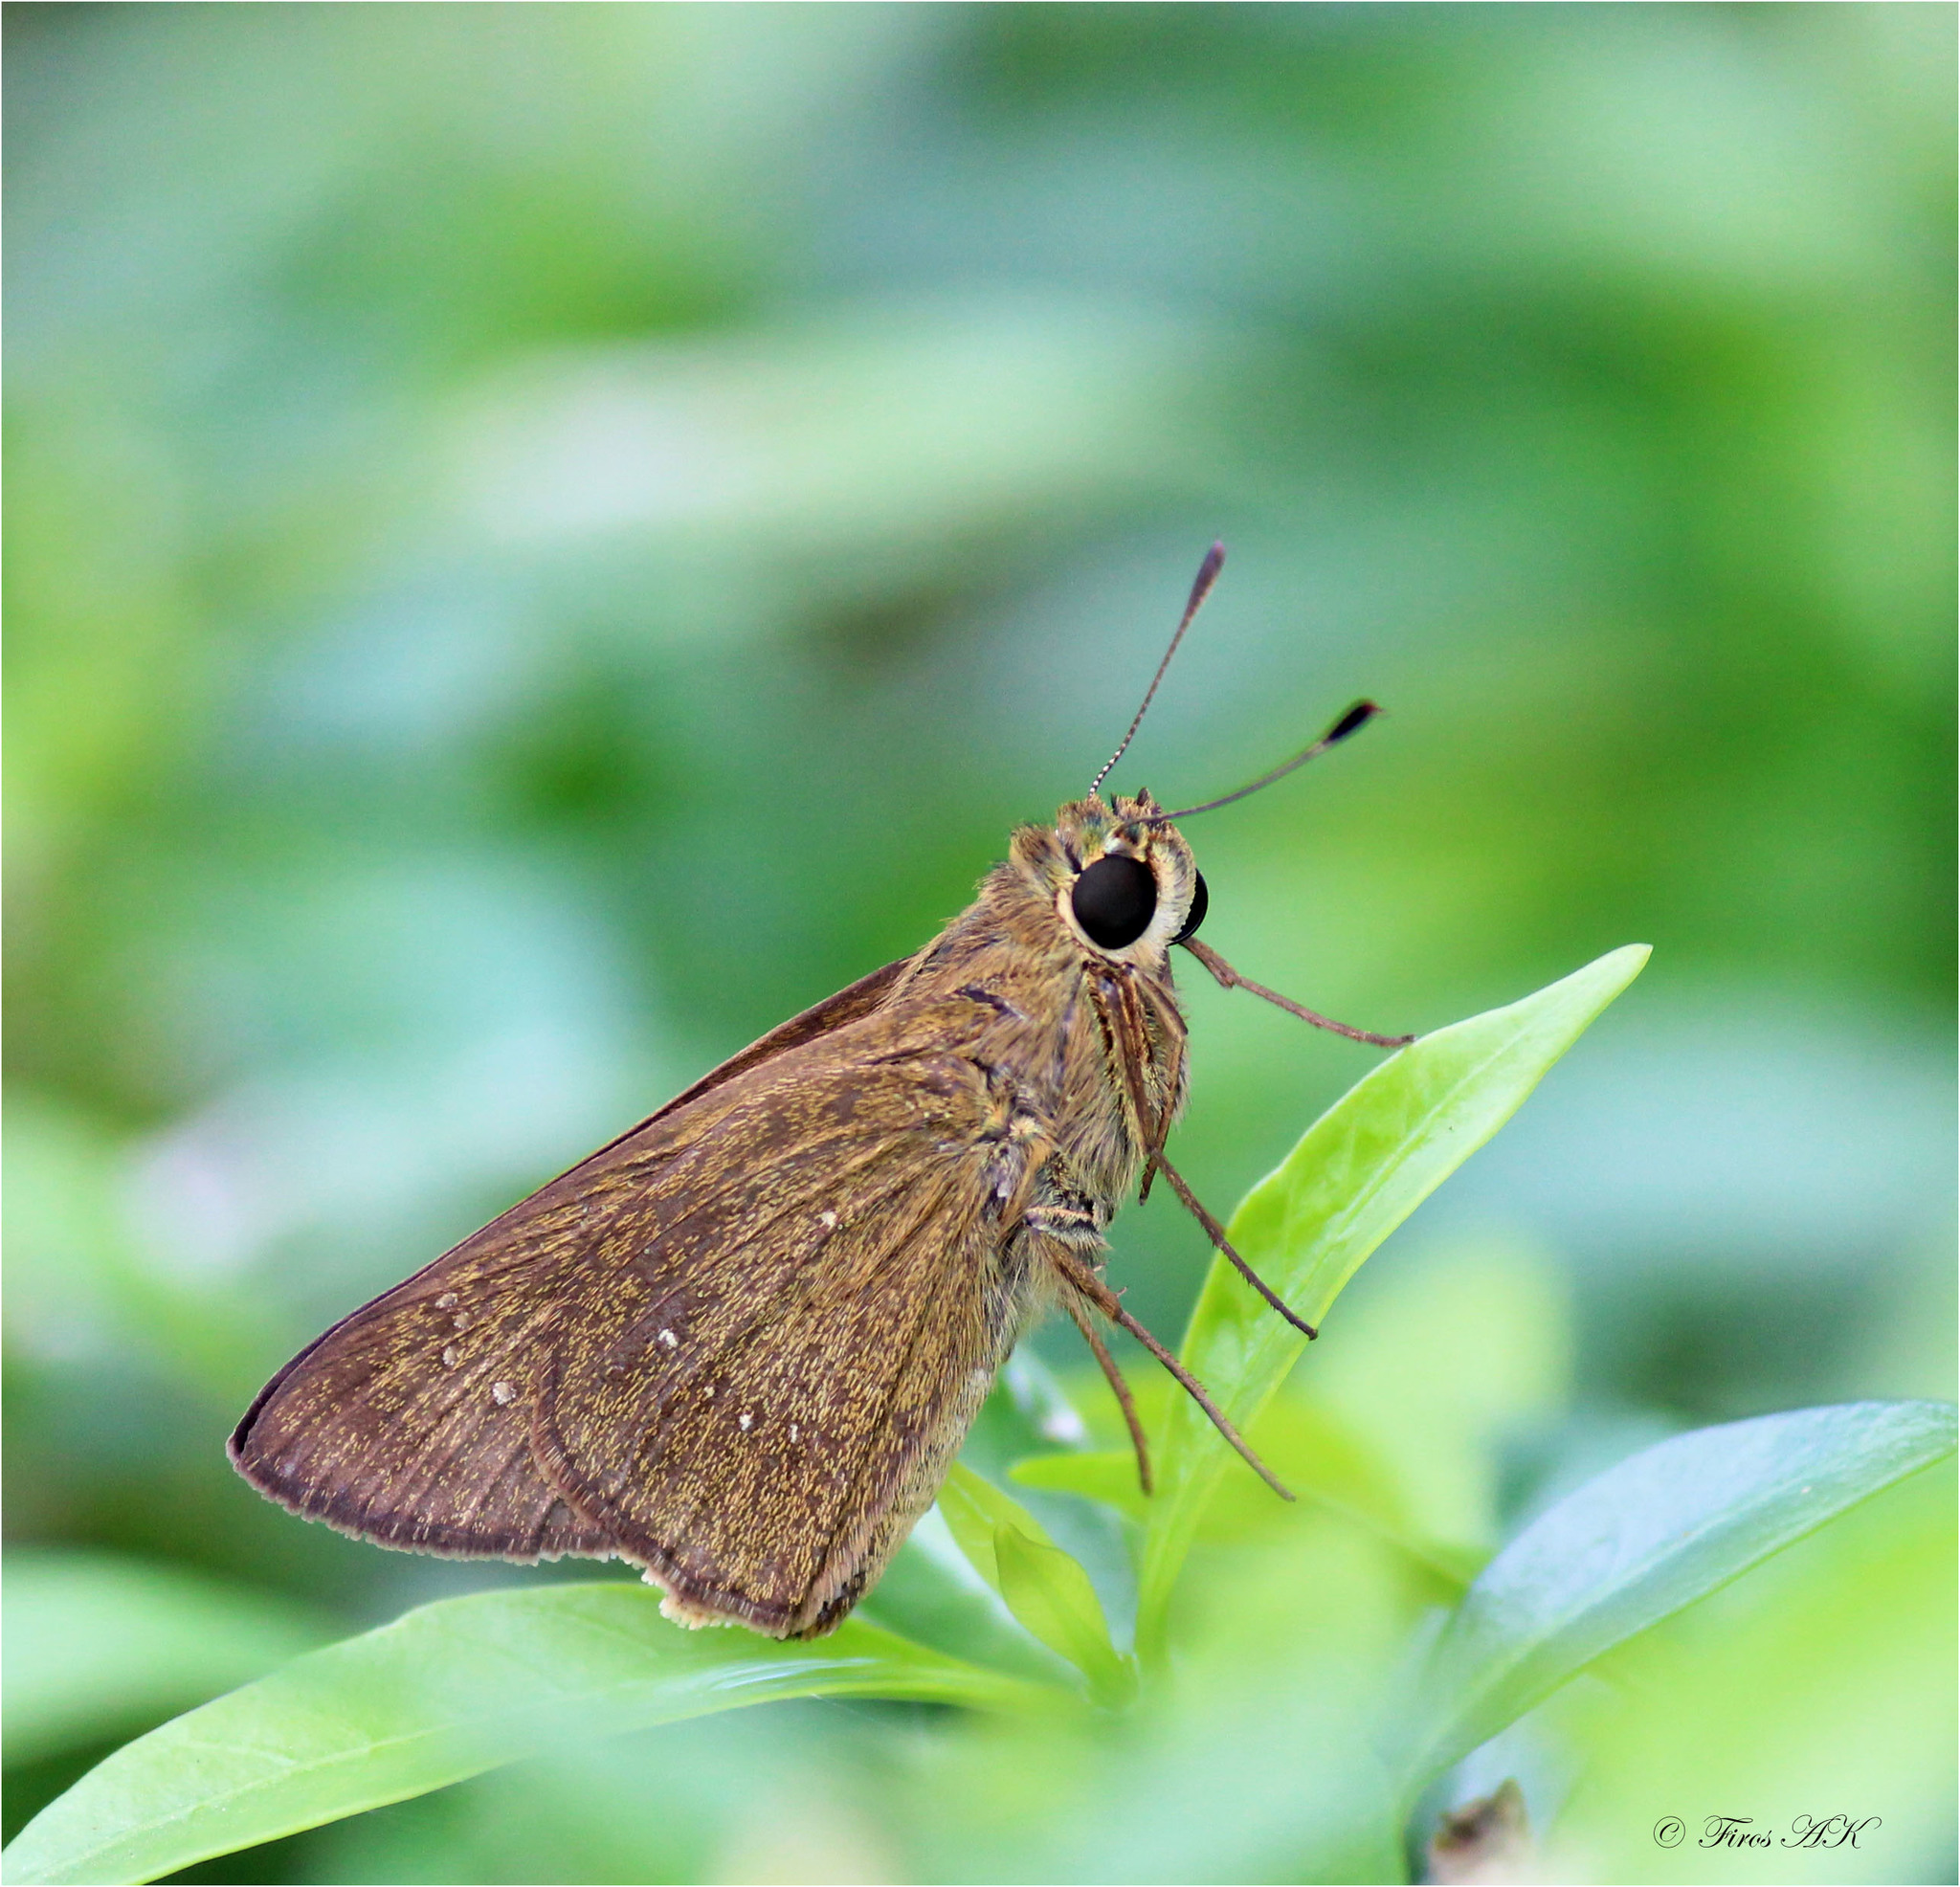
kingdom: Animalia
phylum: Arthropoda
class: Insecta
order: Lepidoptera
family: Hesperiidae
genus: Pelopidas
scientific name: Pelopidas agna
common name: Little branded swift
